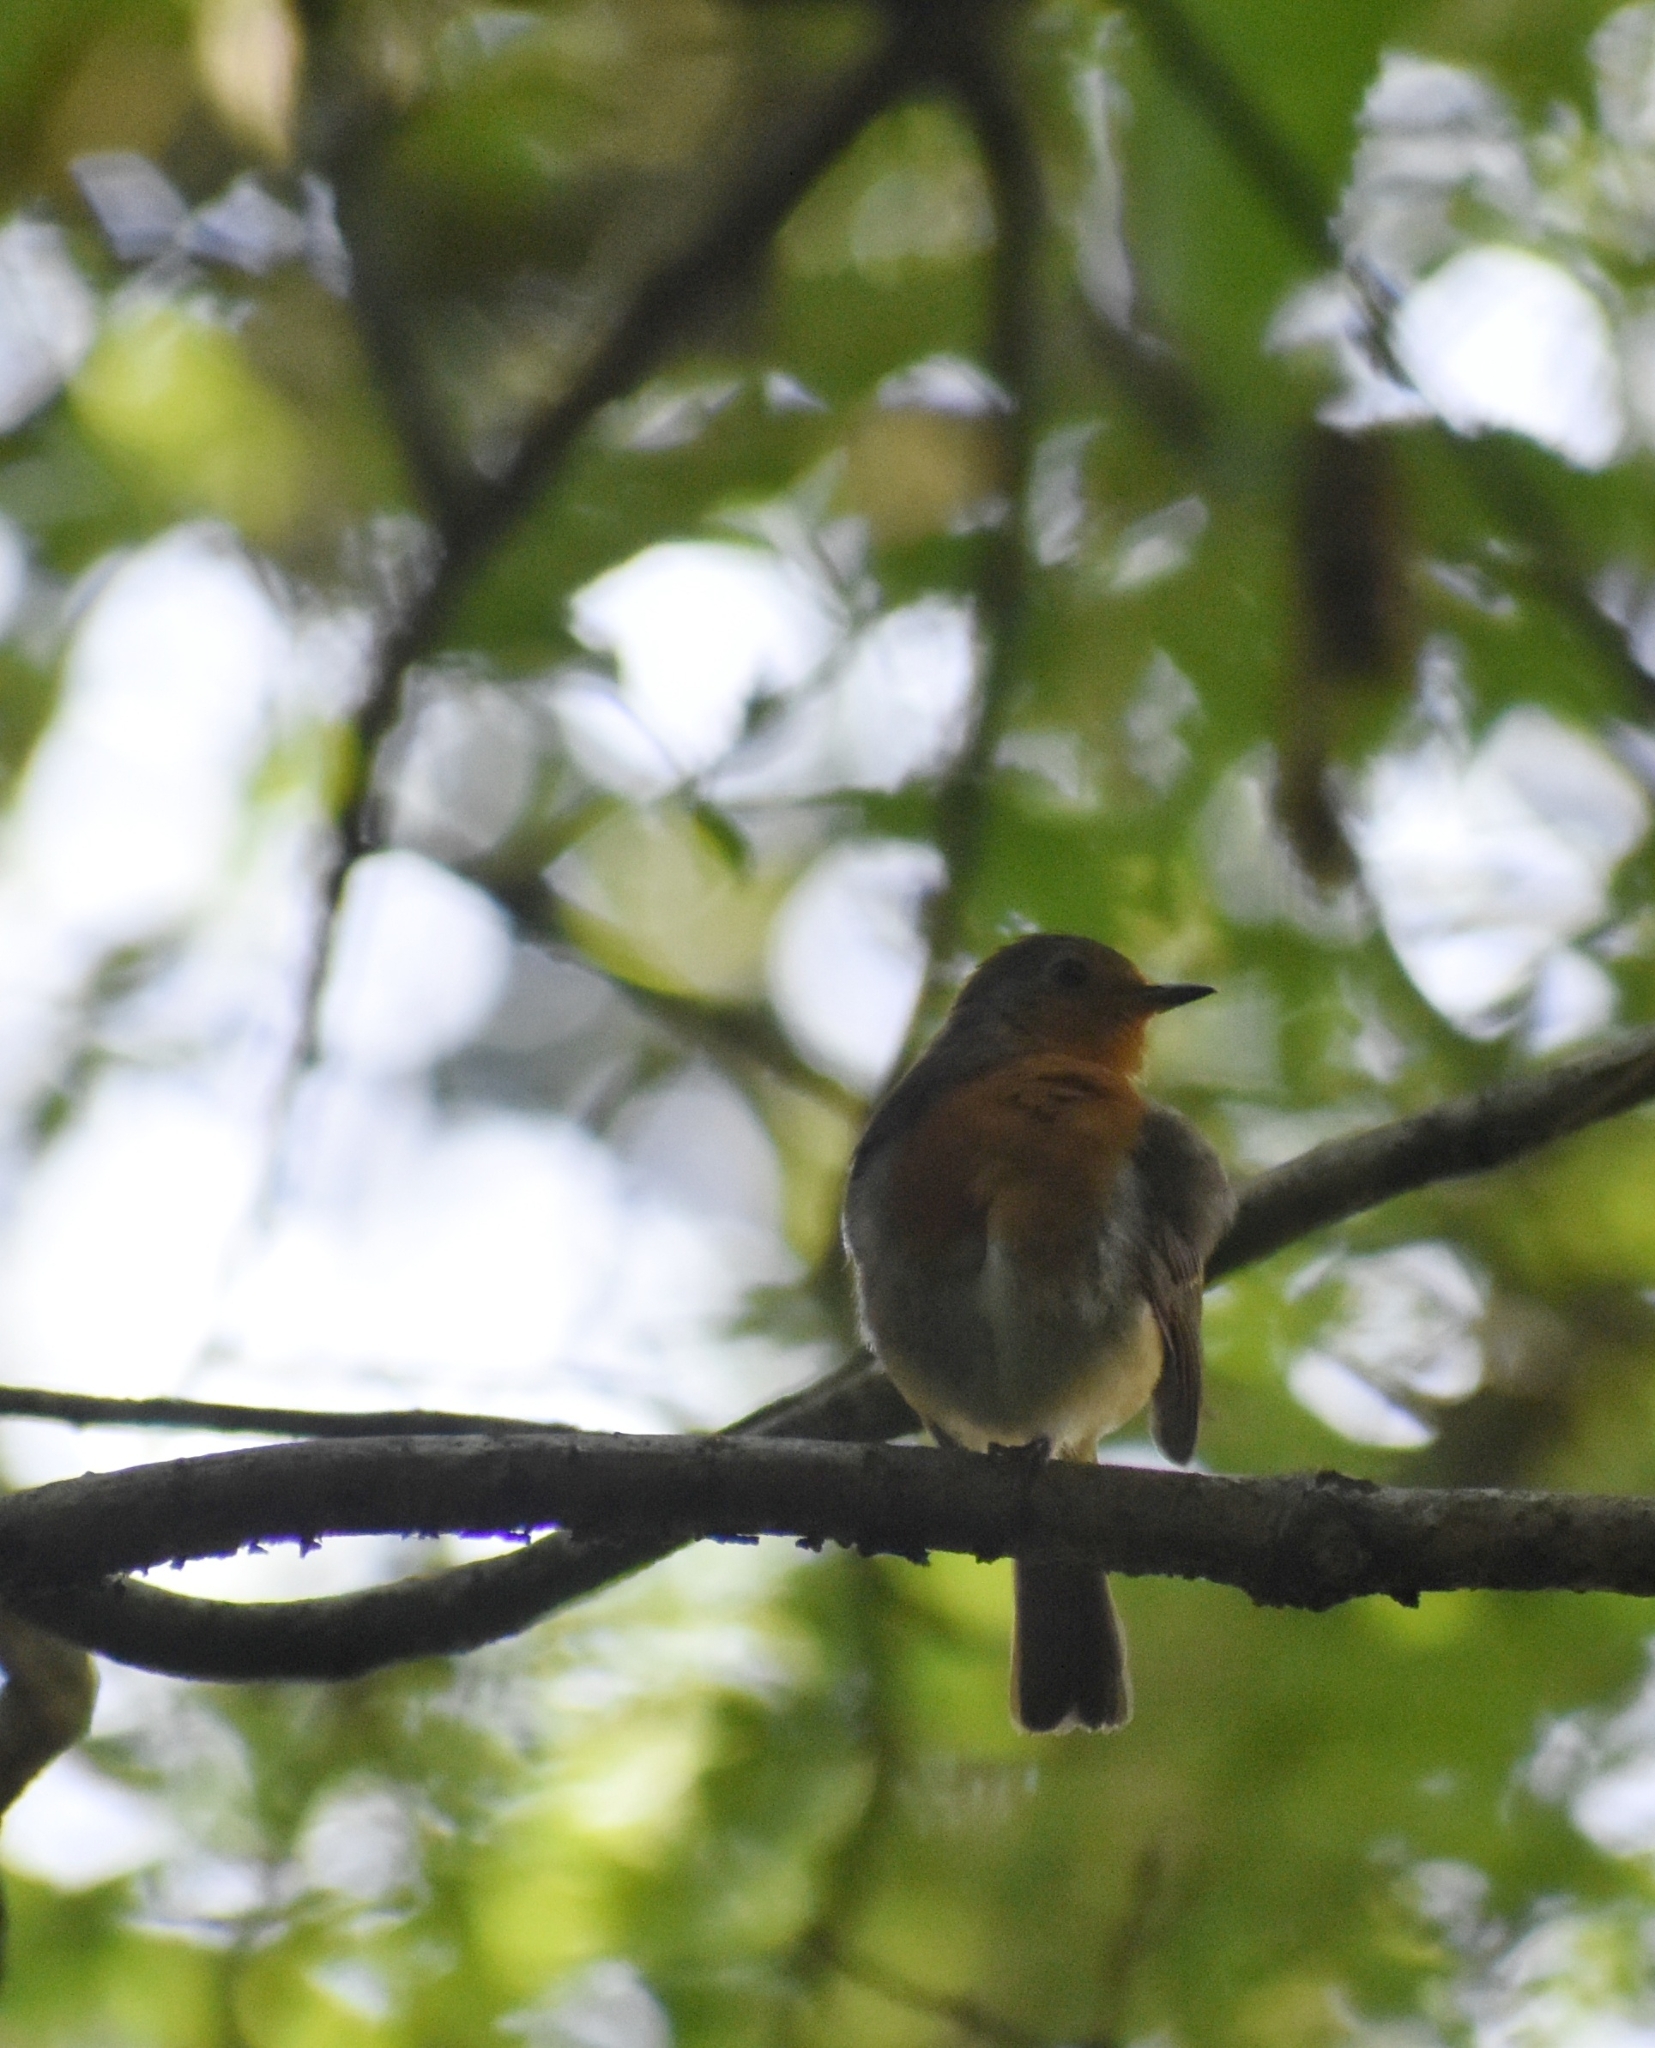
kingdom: Animalia
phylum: Chordata
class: Aves
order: Passeriformes
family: Muscicapidae
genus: Erithacus
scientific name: Erithacus rubecula
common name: European robin
